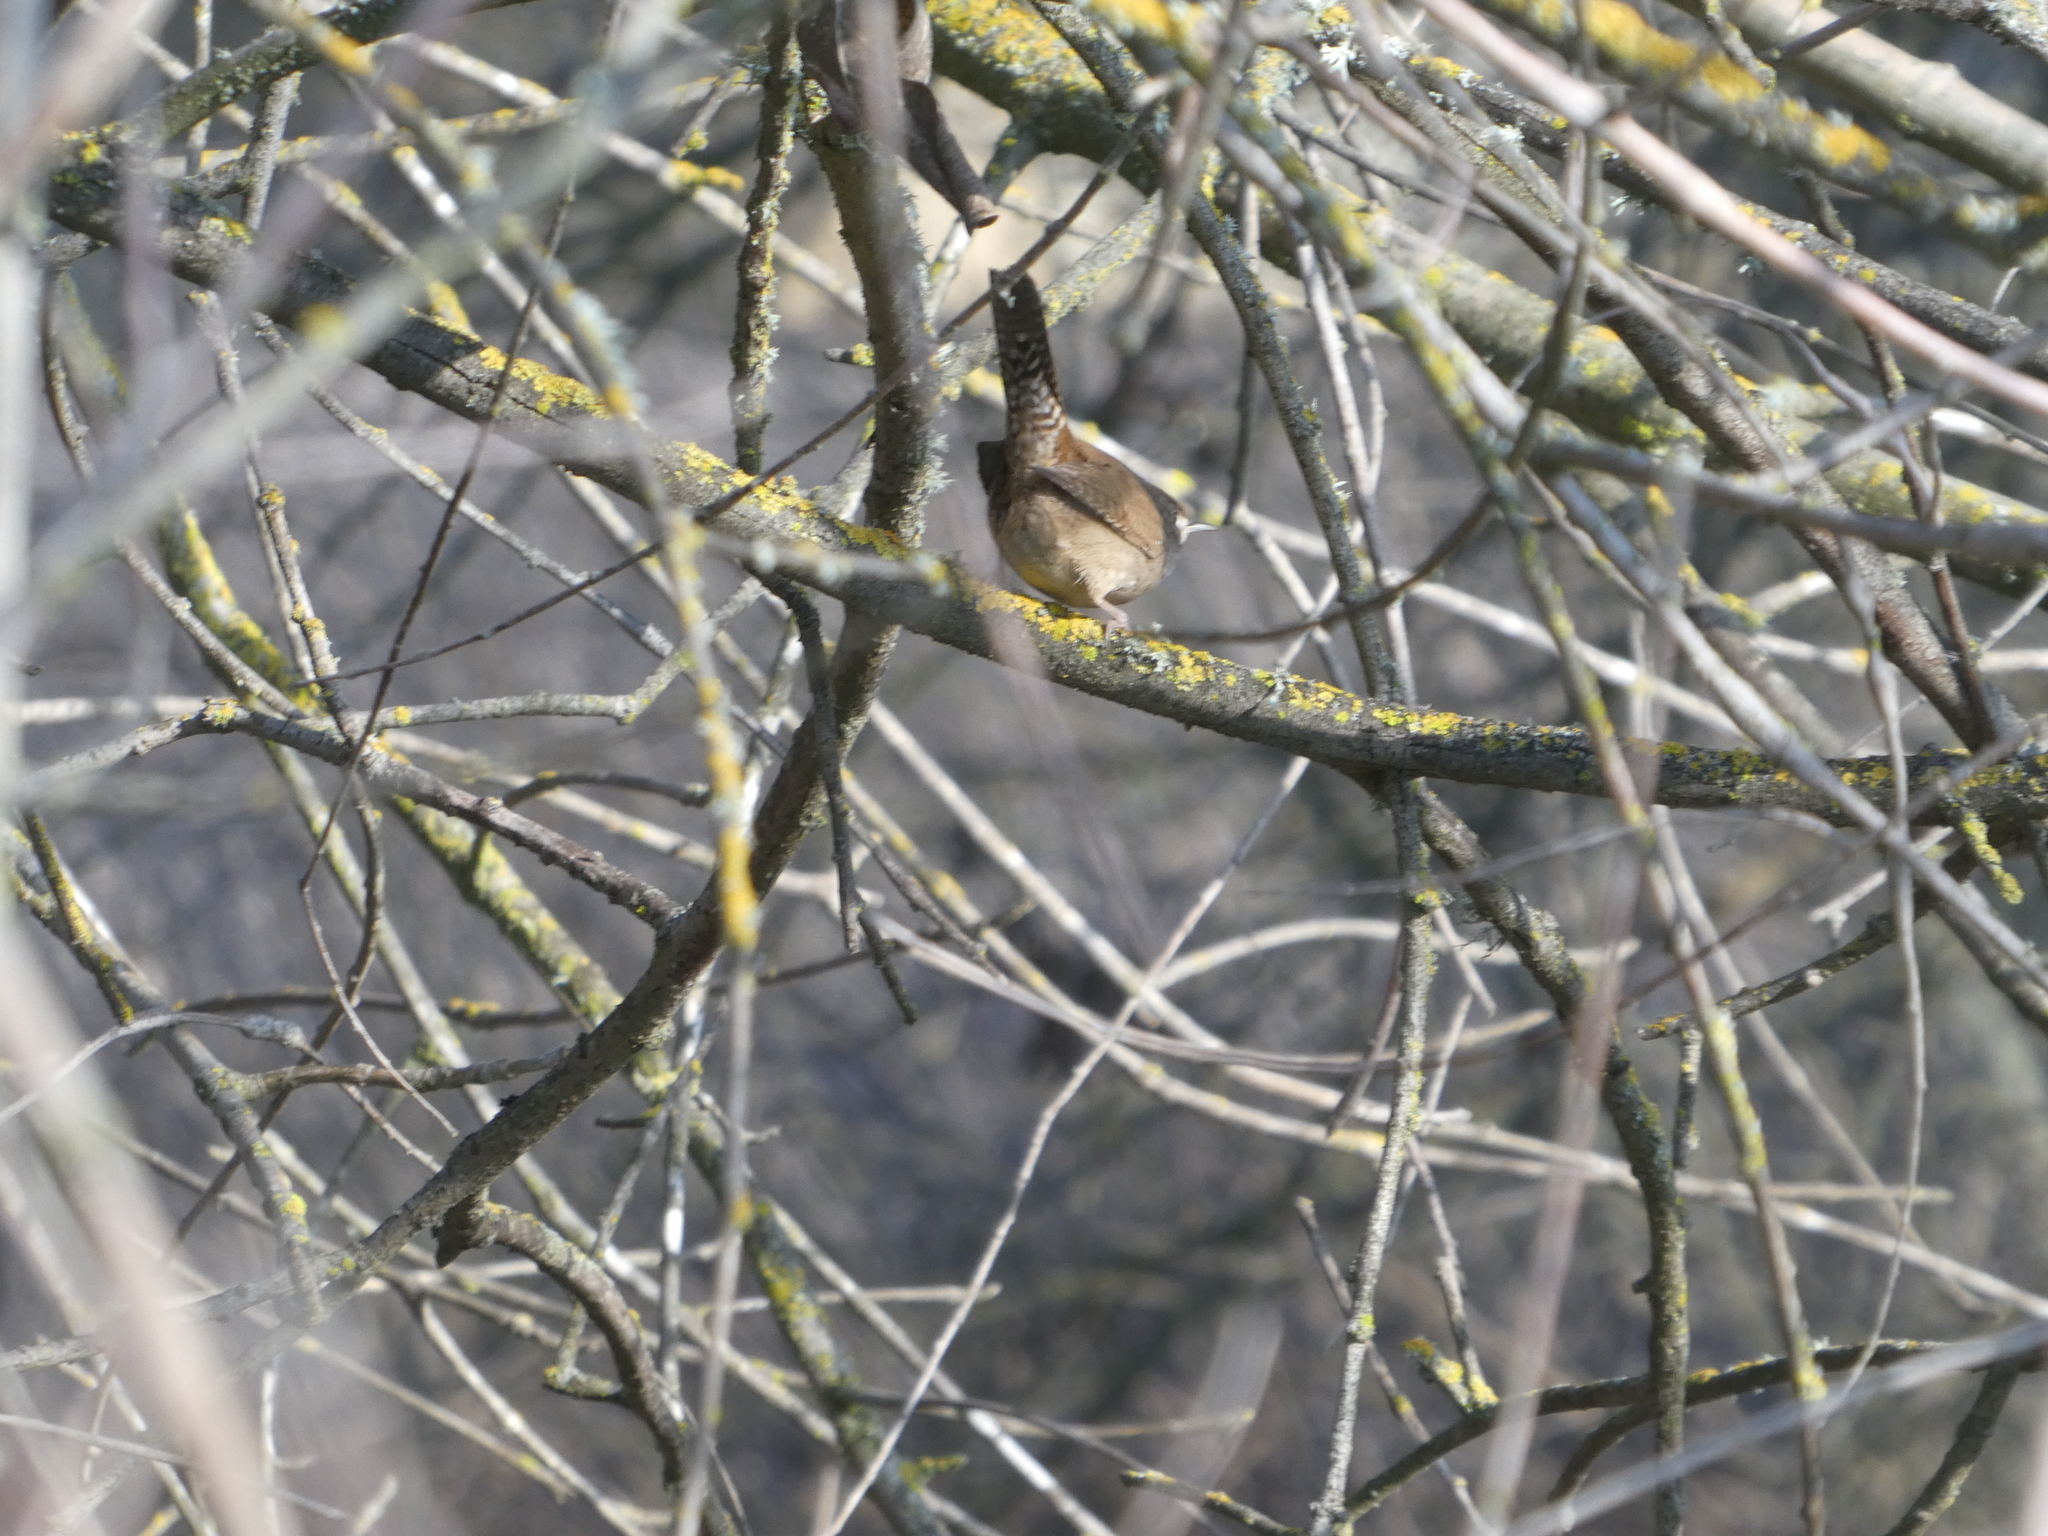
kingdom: Animalia
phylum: Chordata
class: Aves
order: Passeriformes
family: Troglodytidae
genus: Troglodytes
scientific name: Troglodytes aedon
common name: House wren
